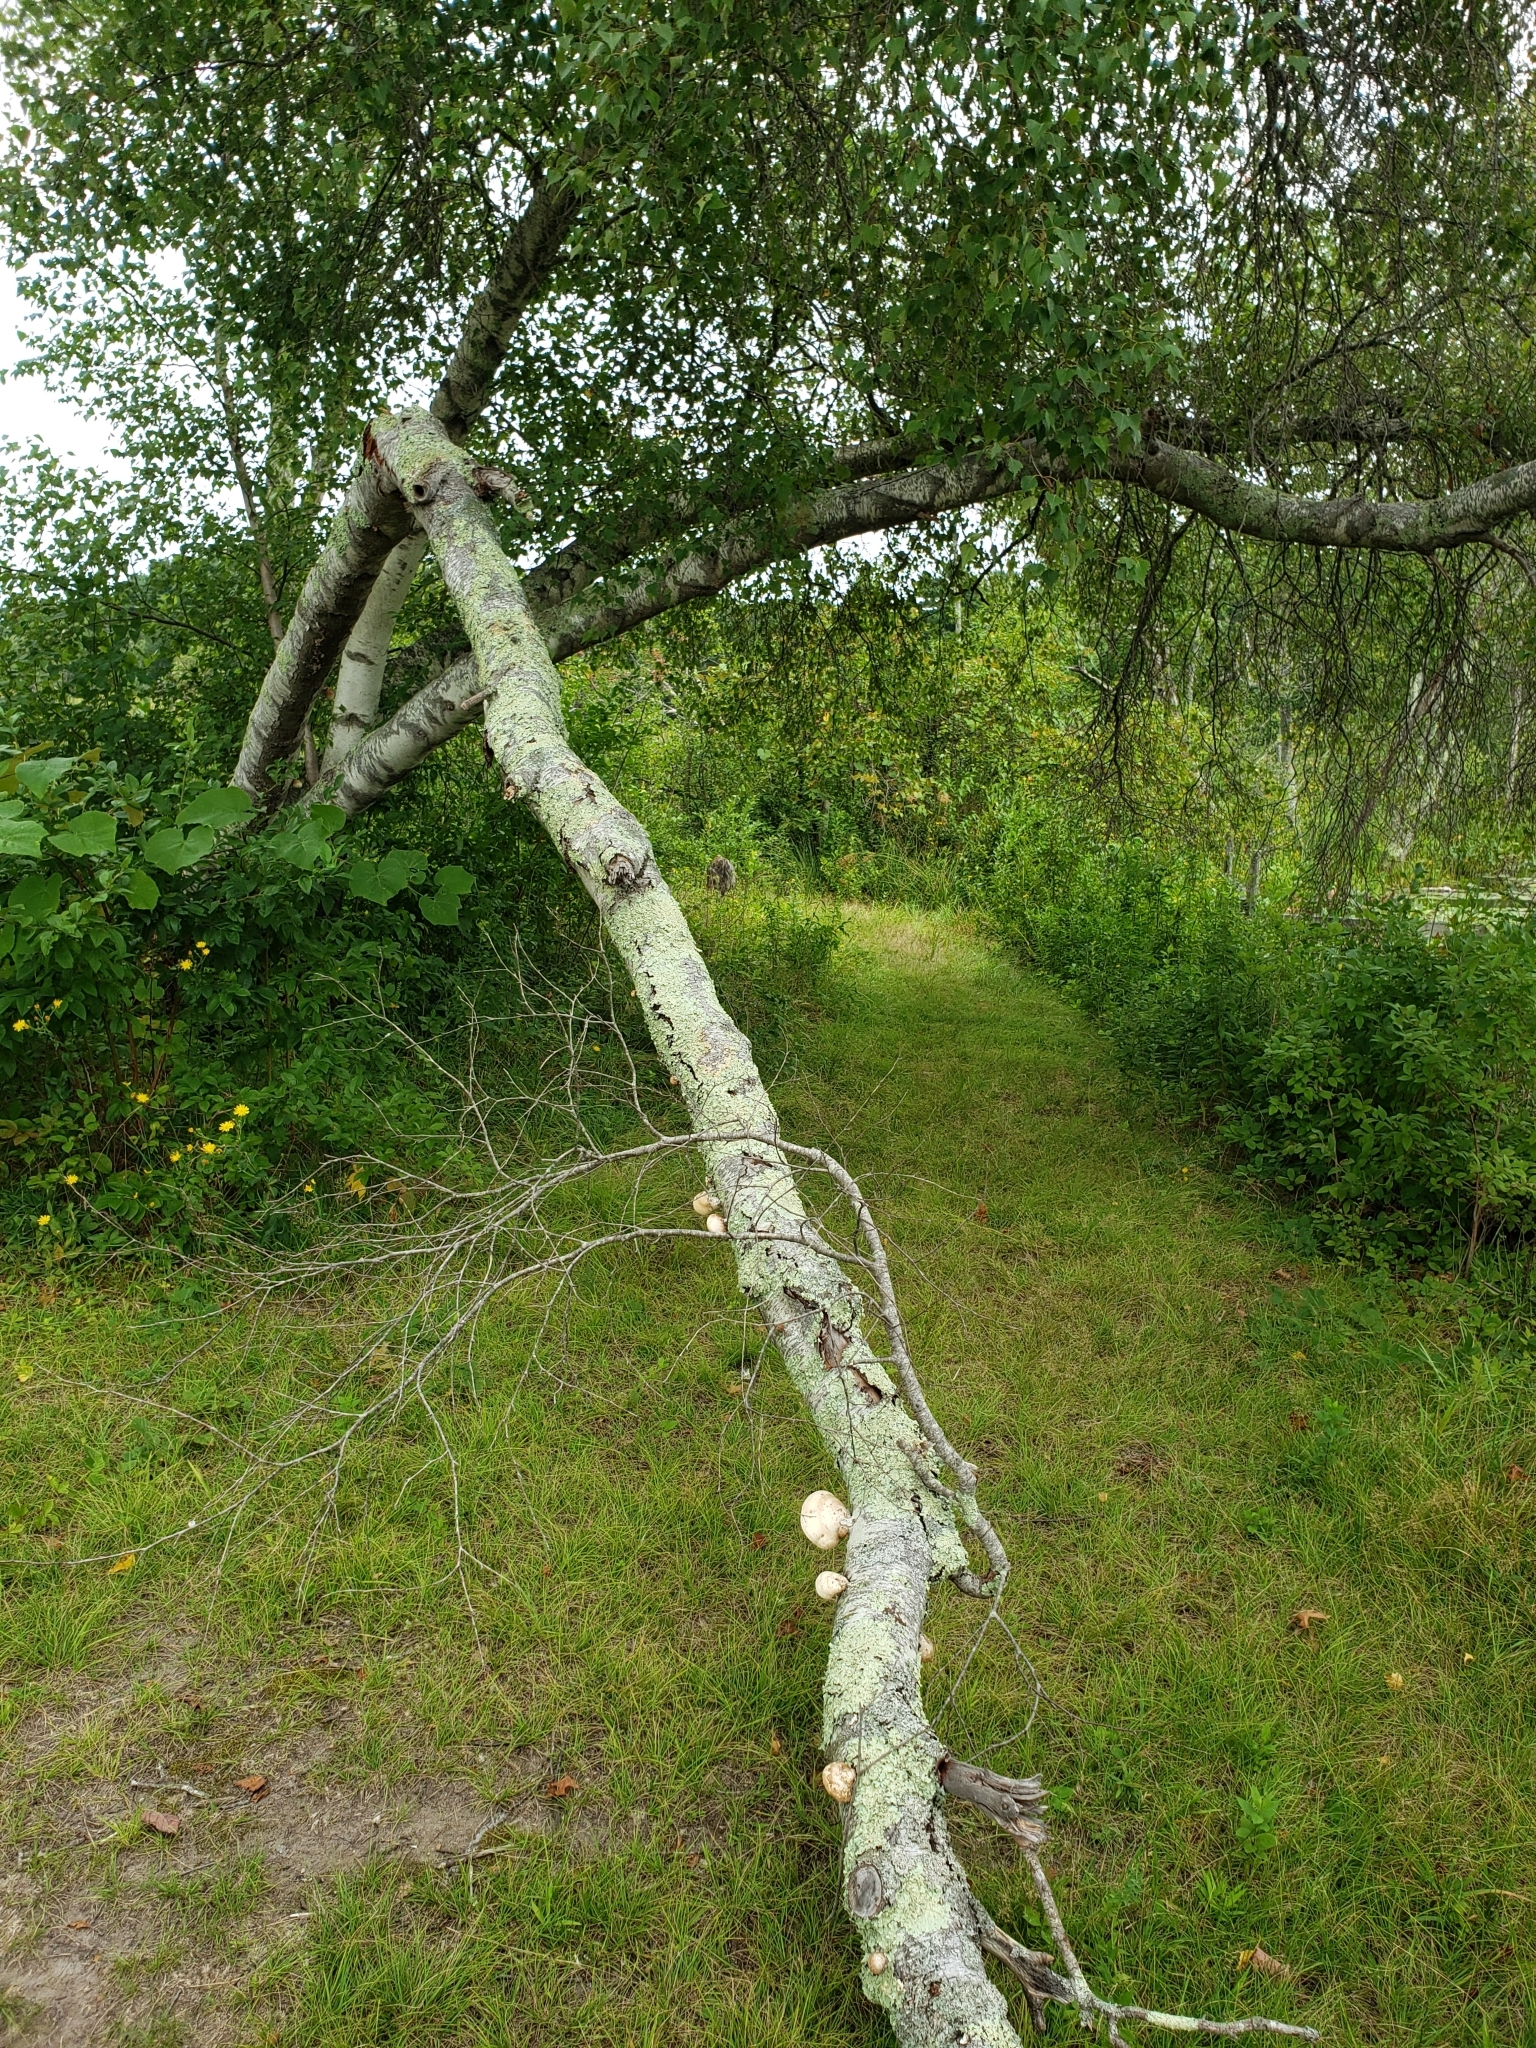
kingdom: Fungi
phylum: Basidiomycota
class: Agaricomycetes
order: Polyporales
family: Fomitopsidaceae
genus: Fomitopsis
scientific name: Fomitopsis betulina
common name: Birch polypore
